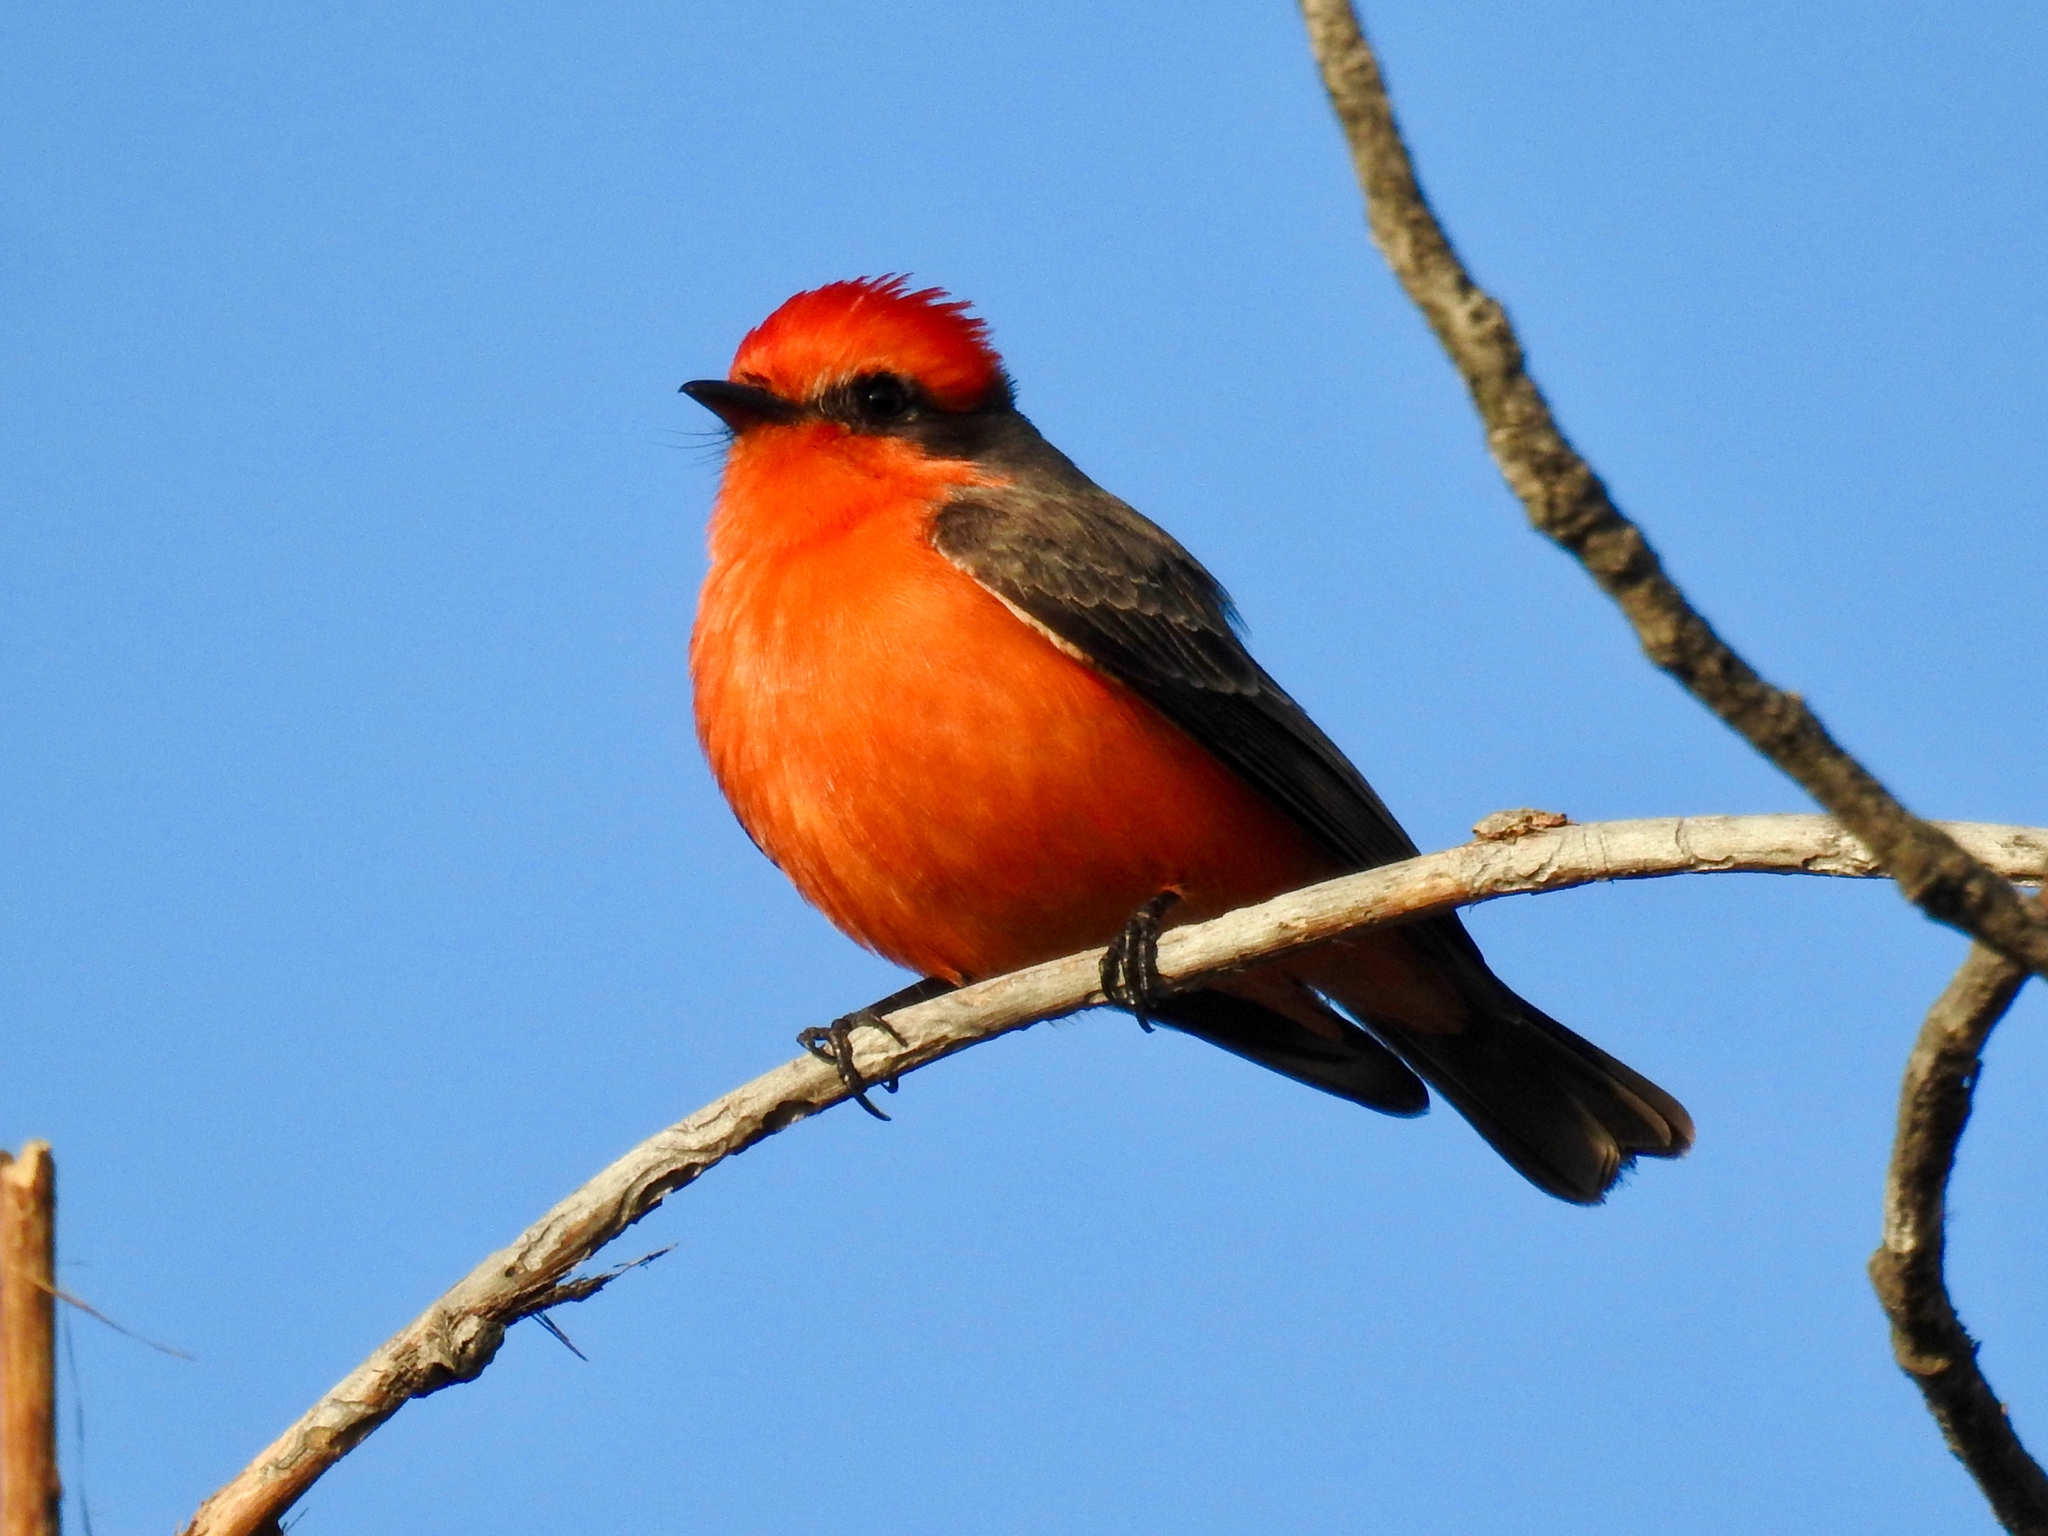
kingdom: Animalia
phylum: Chordata
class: Aves
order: Passeriformes
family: Tyrannidae
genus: Pyrocephalus
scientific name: Pyrocephalus rubinus
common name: Vermilion flycatcher
